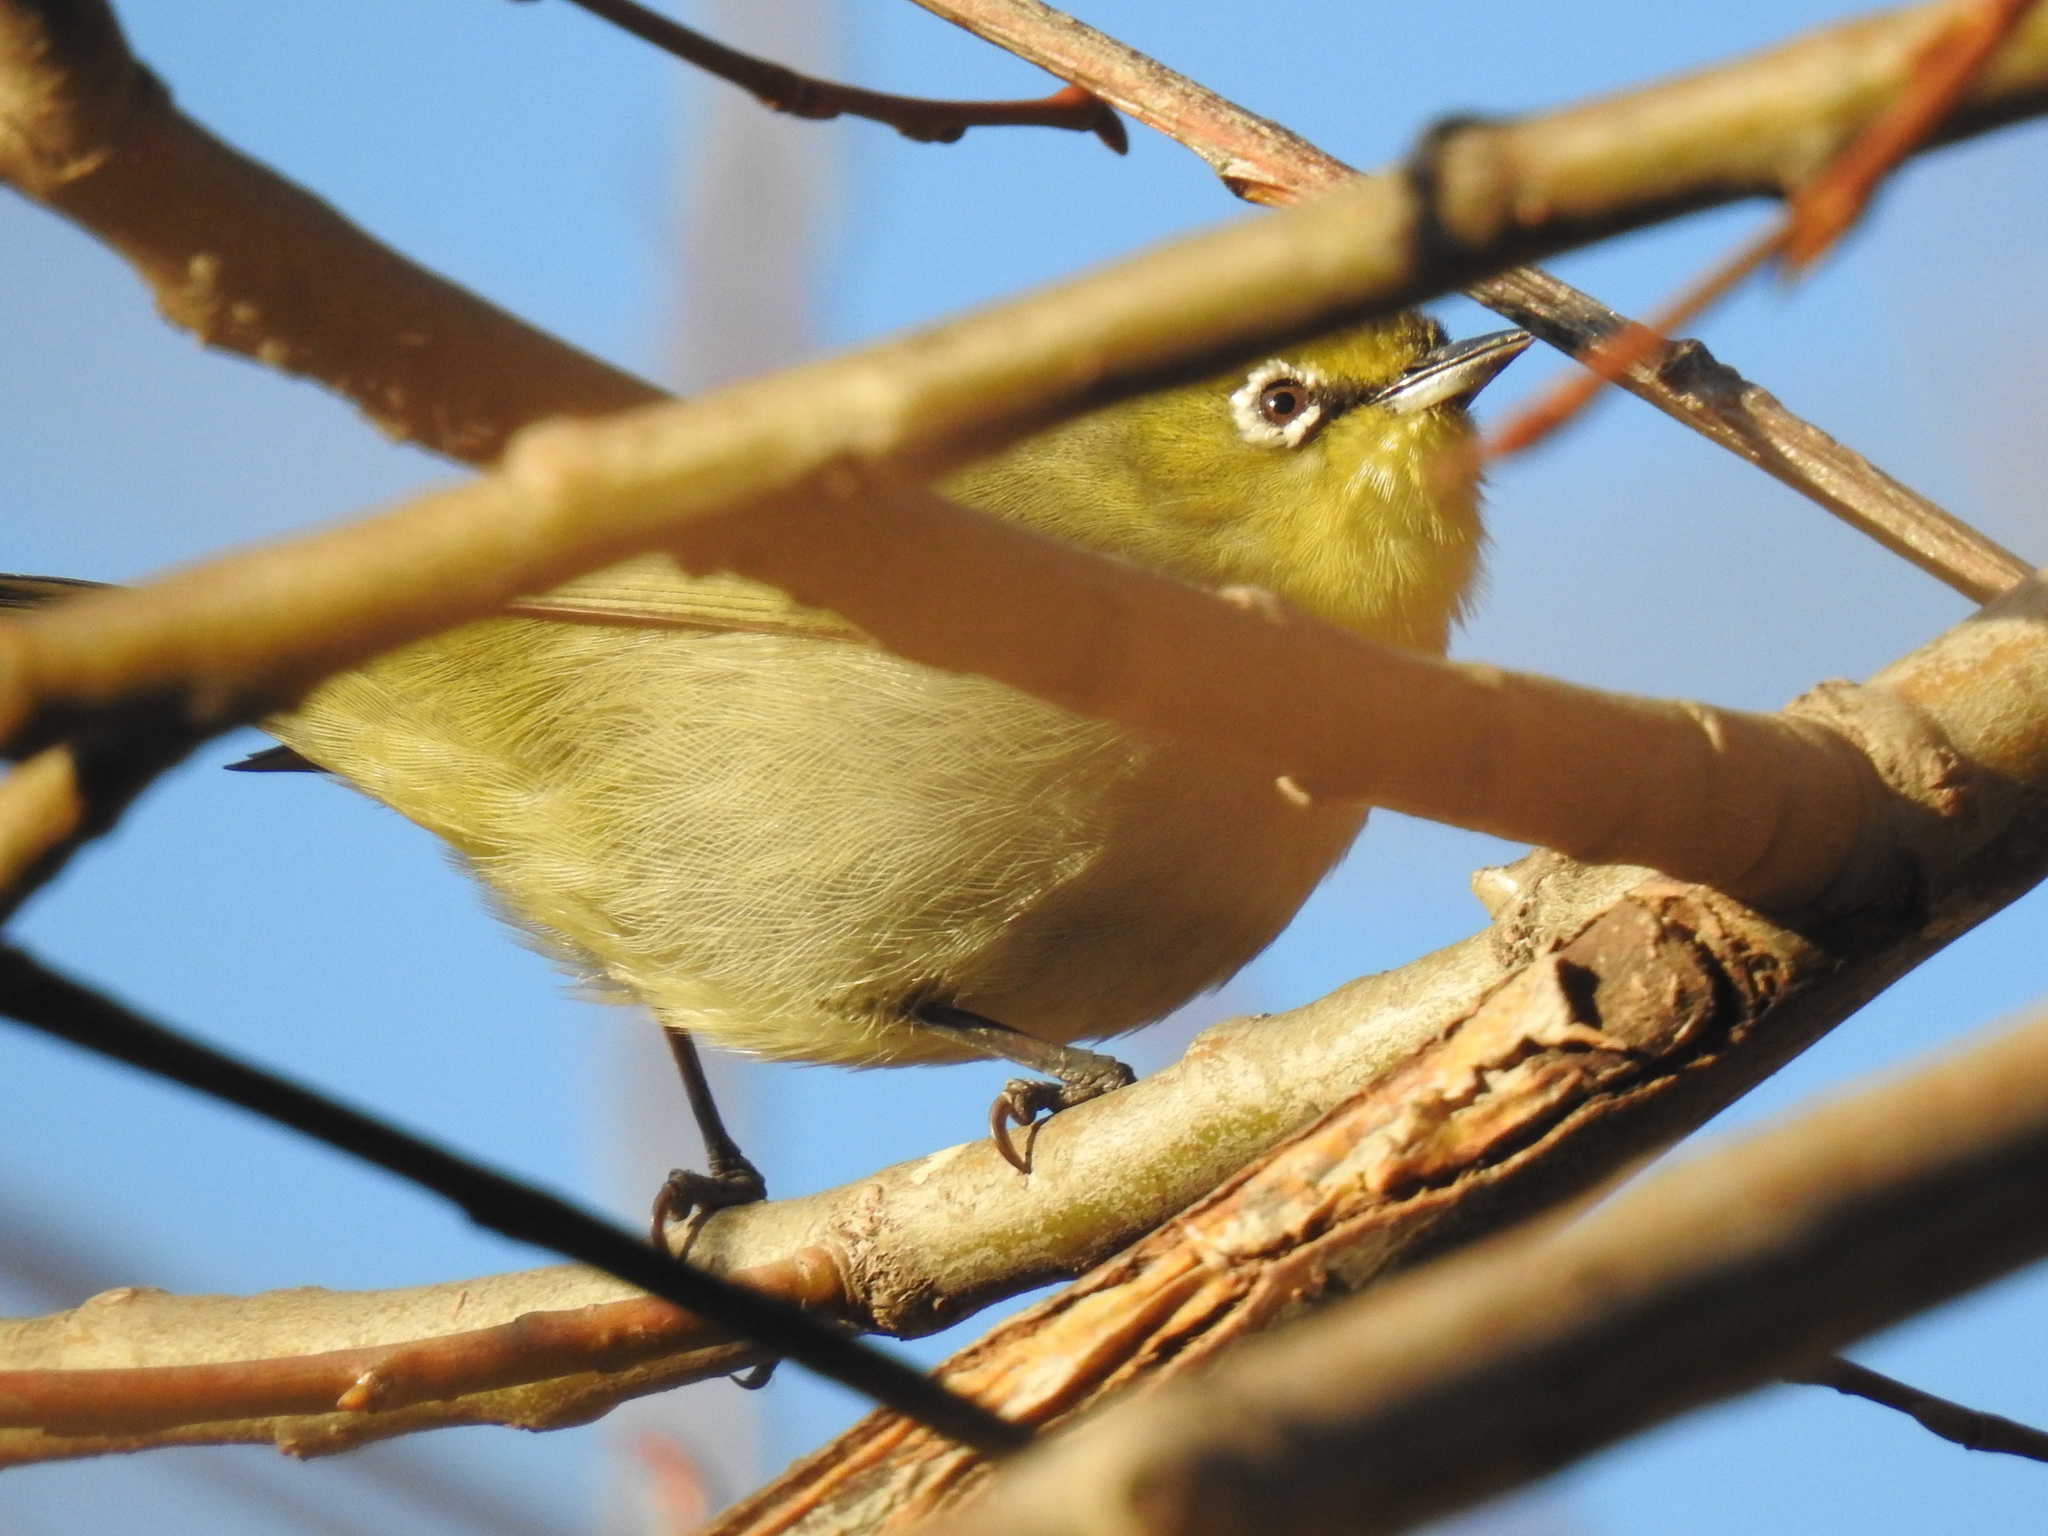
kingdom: Animalia
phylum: Chordata
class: Aves
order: Passeriformes
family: Zosteropidae
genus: Zosterops
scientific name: Zosterops virens
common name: Cape white-eye
